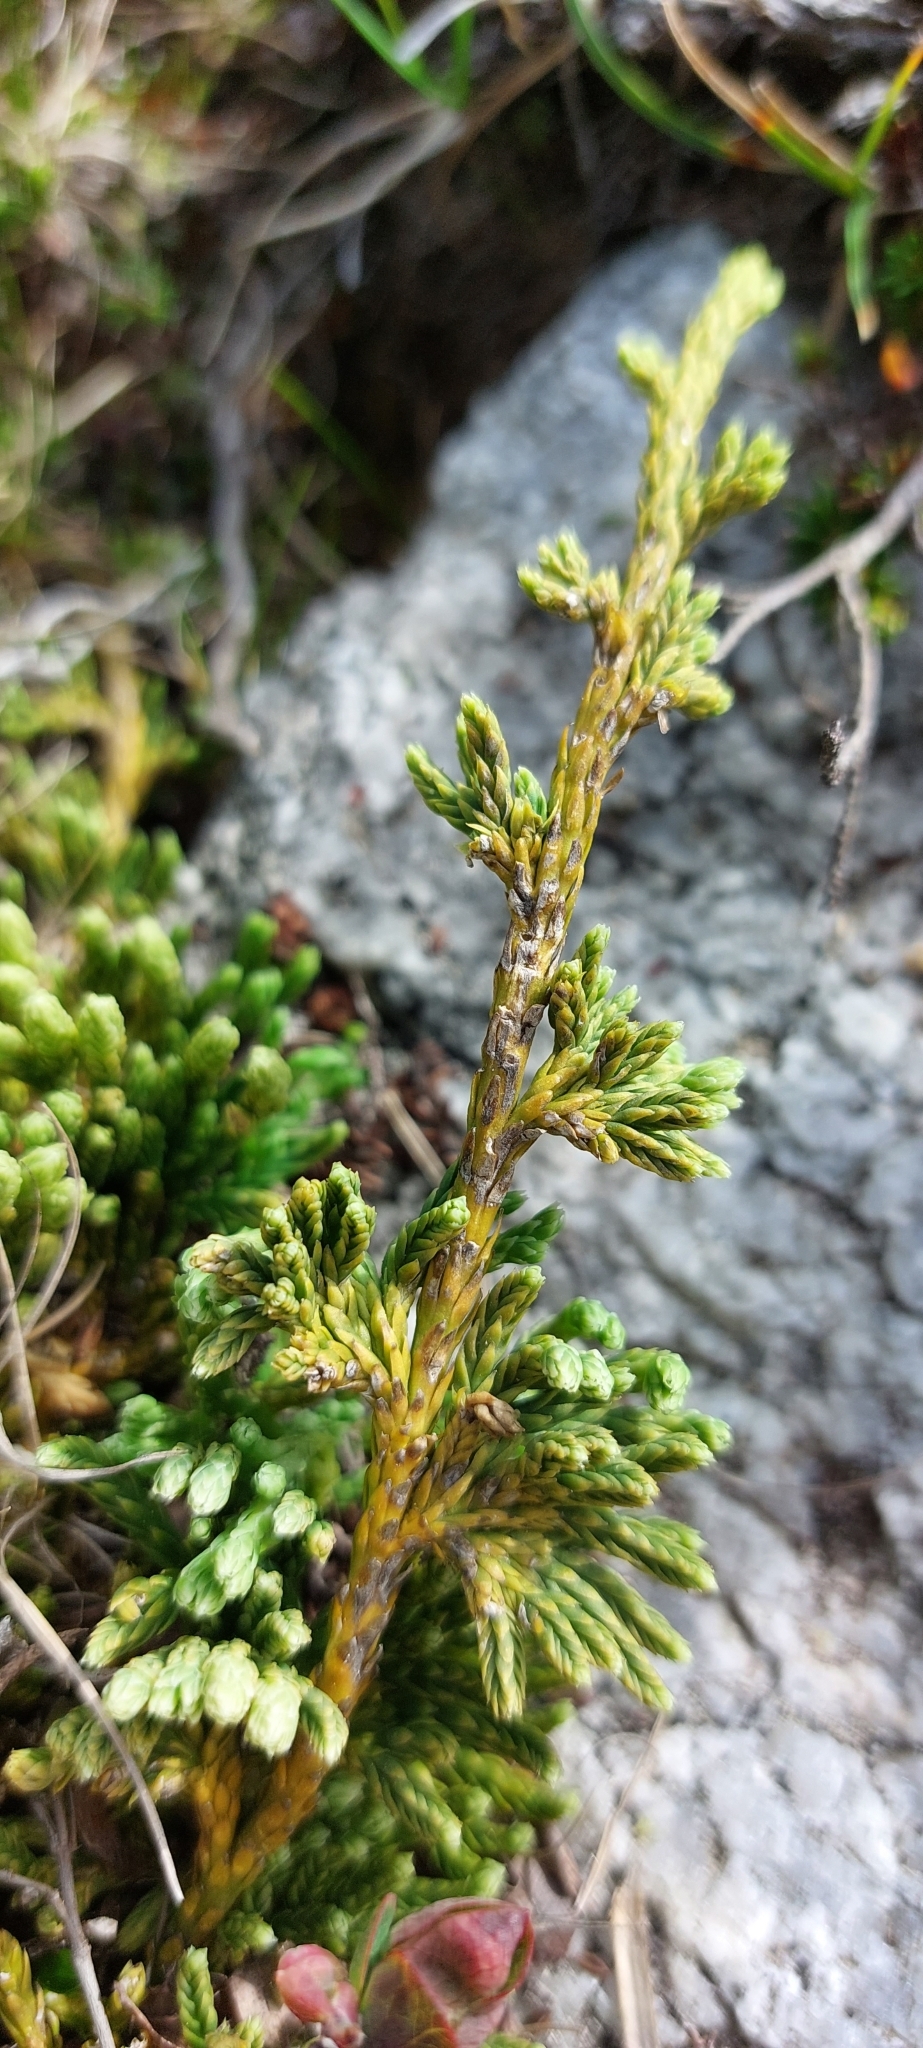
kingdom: Plantae
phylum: Tracheophyta
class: Lycopodiopsida
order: Lycopodiales
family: Lycopodiaceae
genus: Diphasiastrum
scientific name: Diphasiastrum alpinum
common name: Alpine clubmoss
